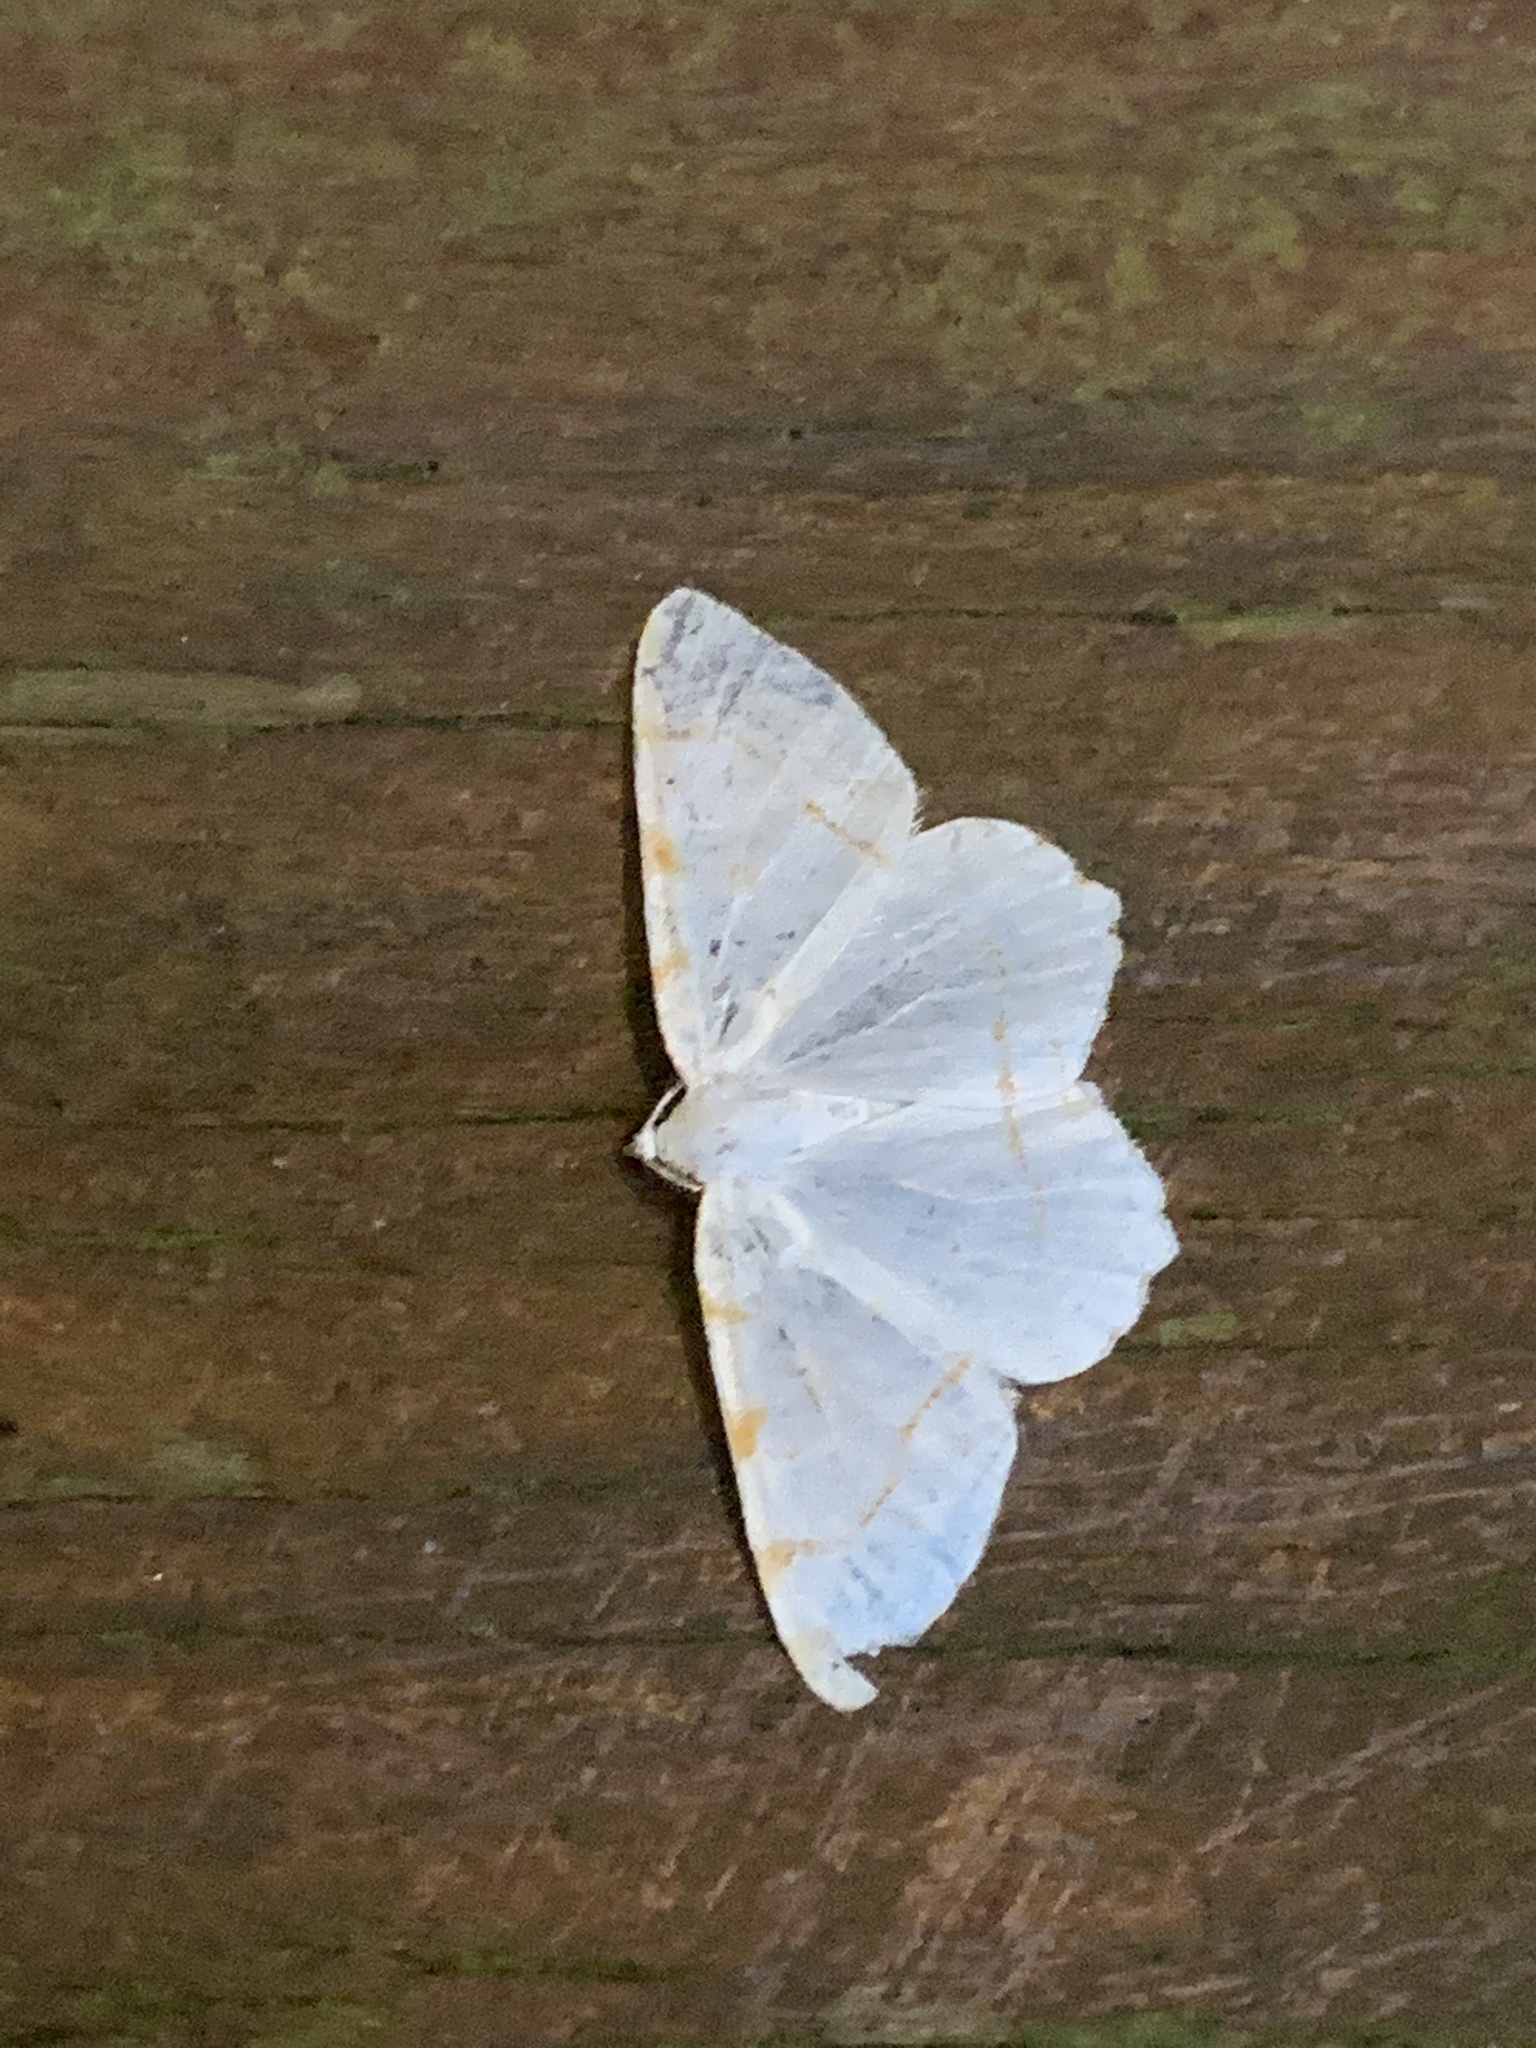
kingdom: Animalia
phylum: Arthropoda
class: Insecta
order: Lepidoptera
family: Geometridae
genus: Macaria
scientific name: Macaria pustularia
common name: Lesser maple spanworm moth
